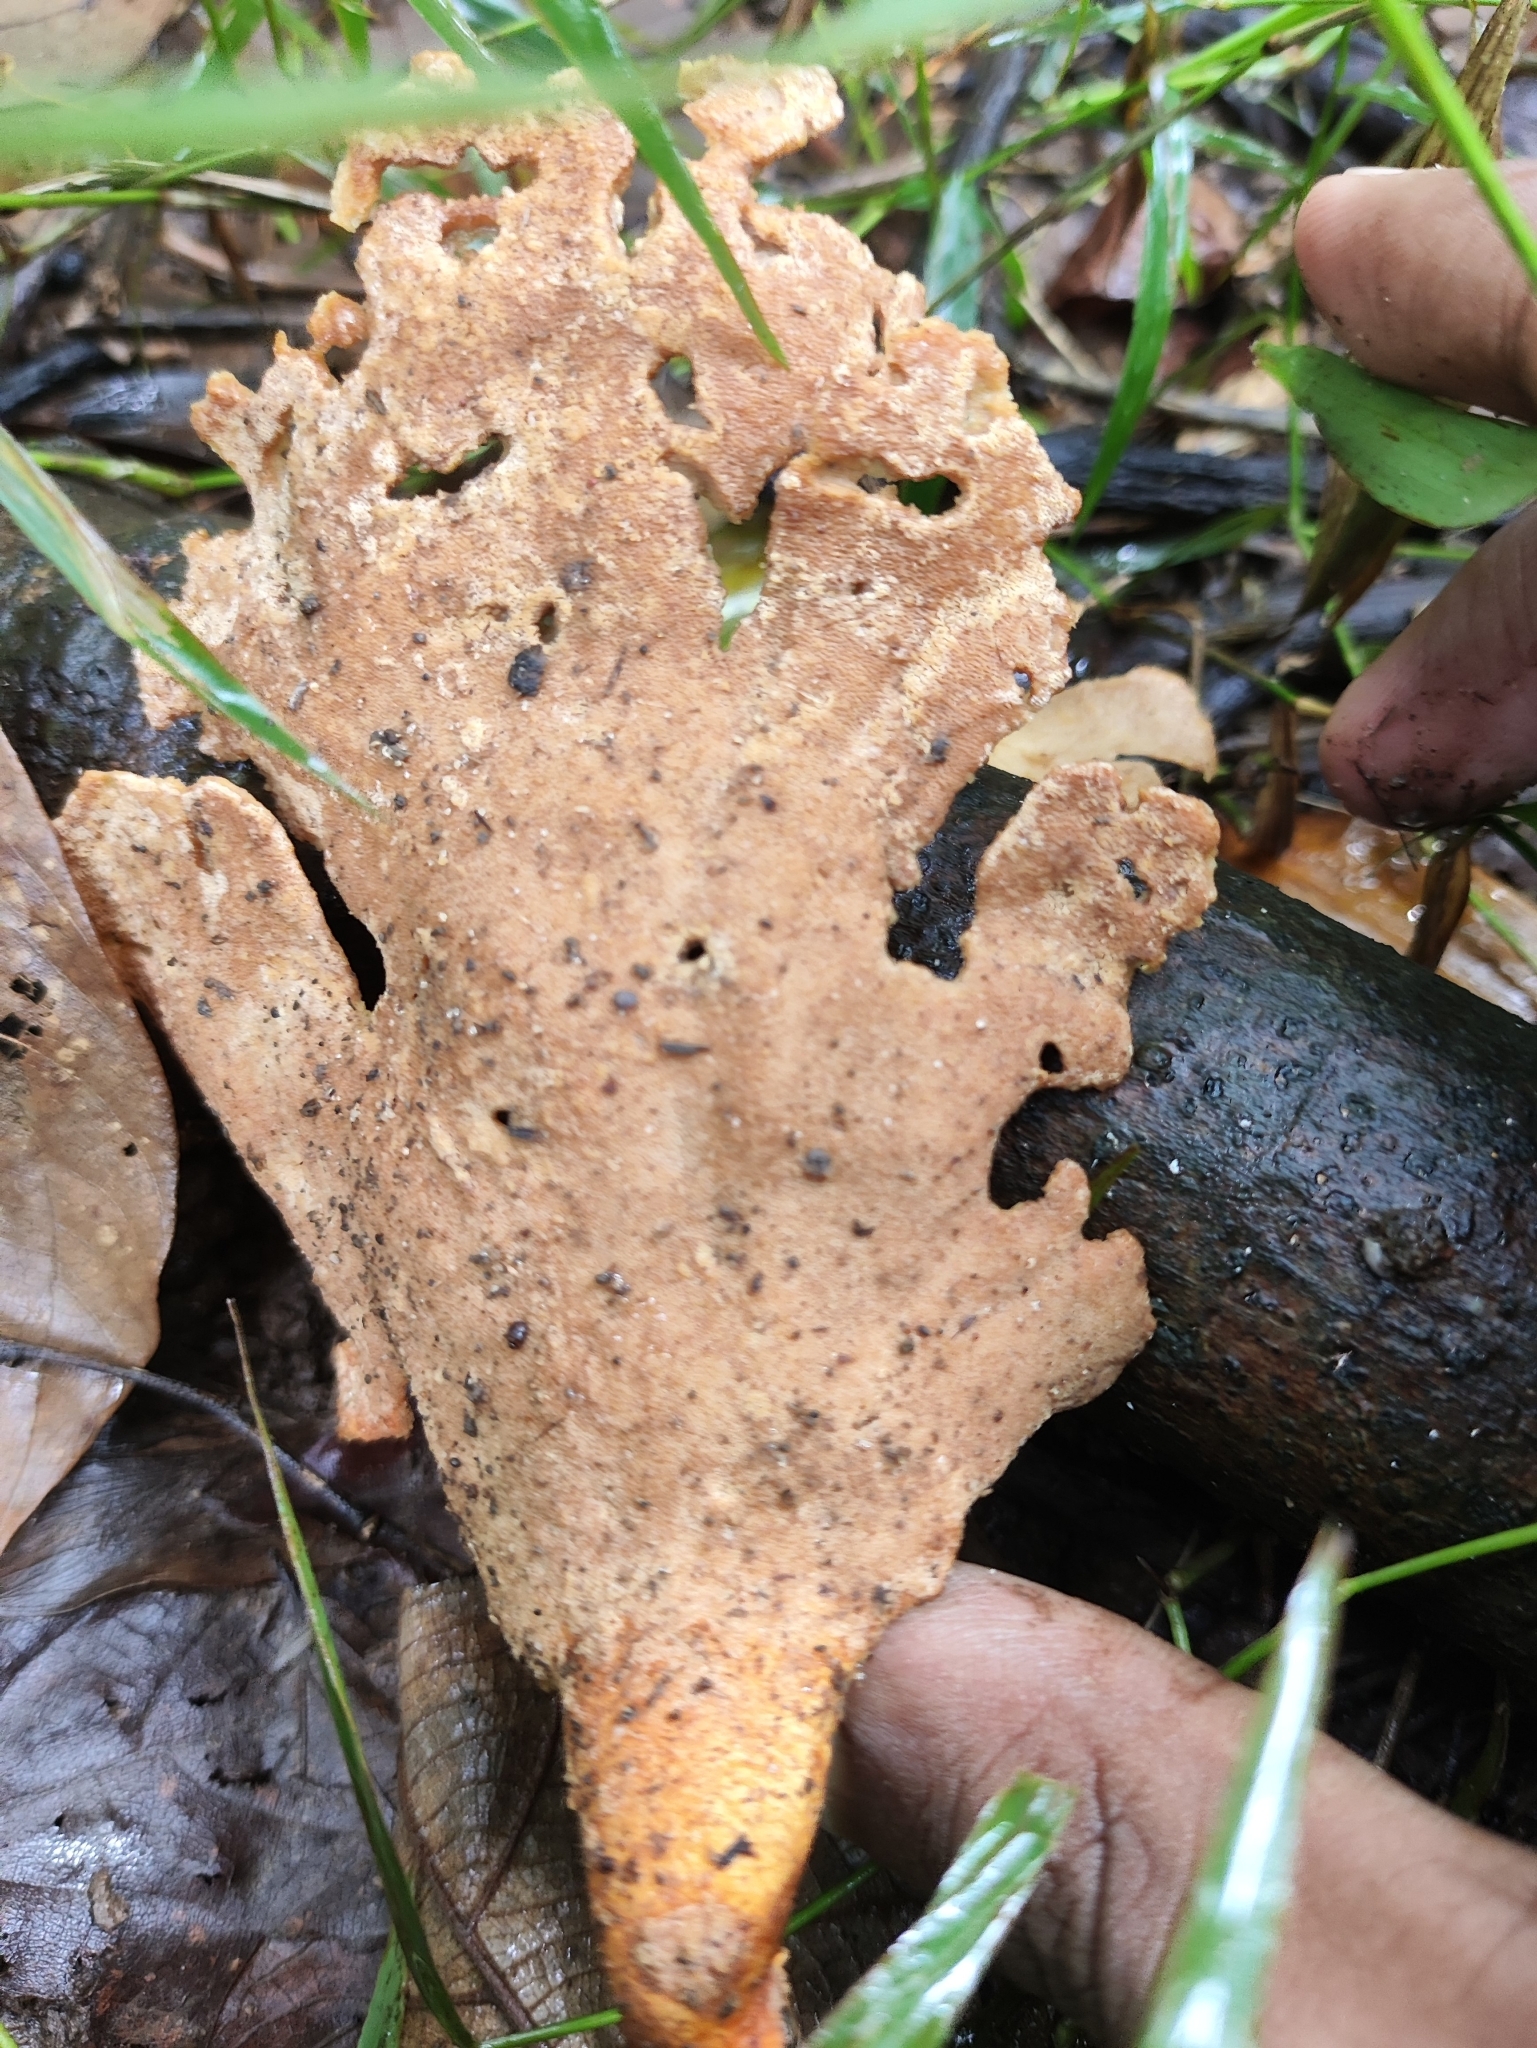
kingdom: Fungi
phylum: Basidiomycota
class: Agaricomycetes
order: Polyporales
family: Polyporaceae
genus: Cerioporus
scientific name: Cerioporus leptocephalus
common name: Blackfoot polypore
